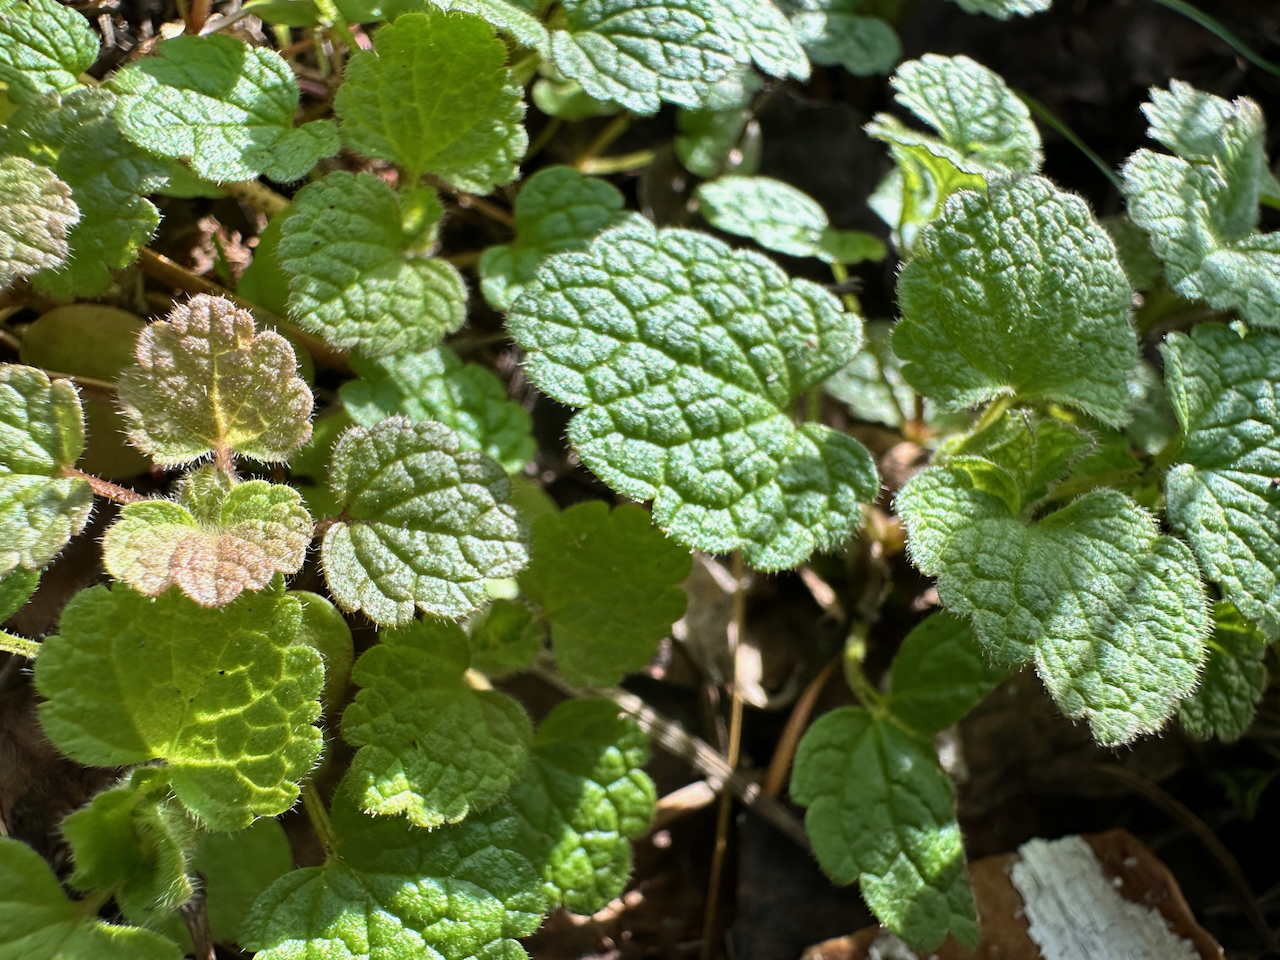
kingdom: Plantae
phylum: Tracheophyta
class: Magnoliopsida
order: Lamiales
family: Lamiaceae
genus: Lamium
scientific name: Lamium purpureum
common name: Red dead-nettle
